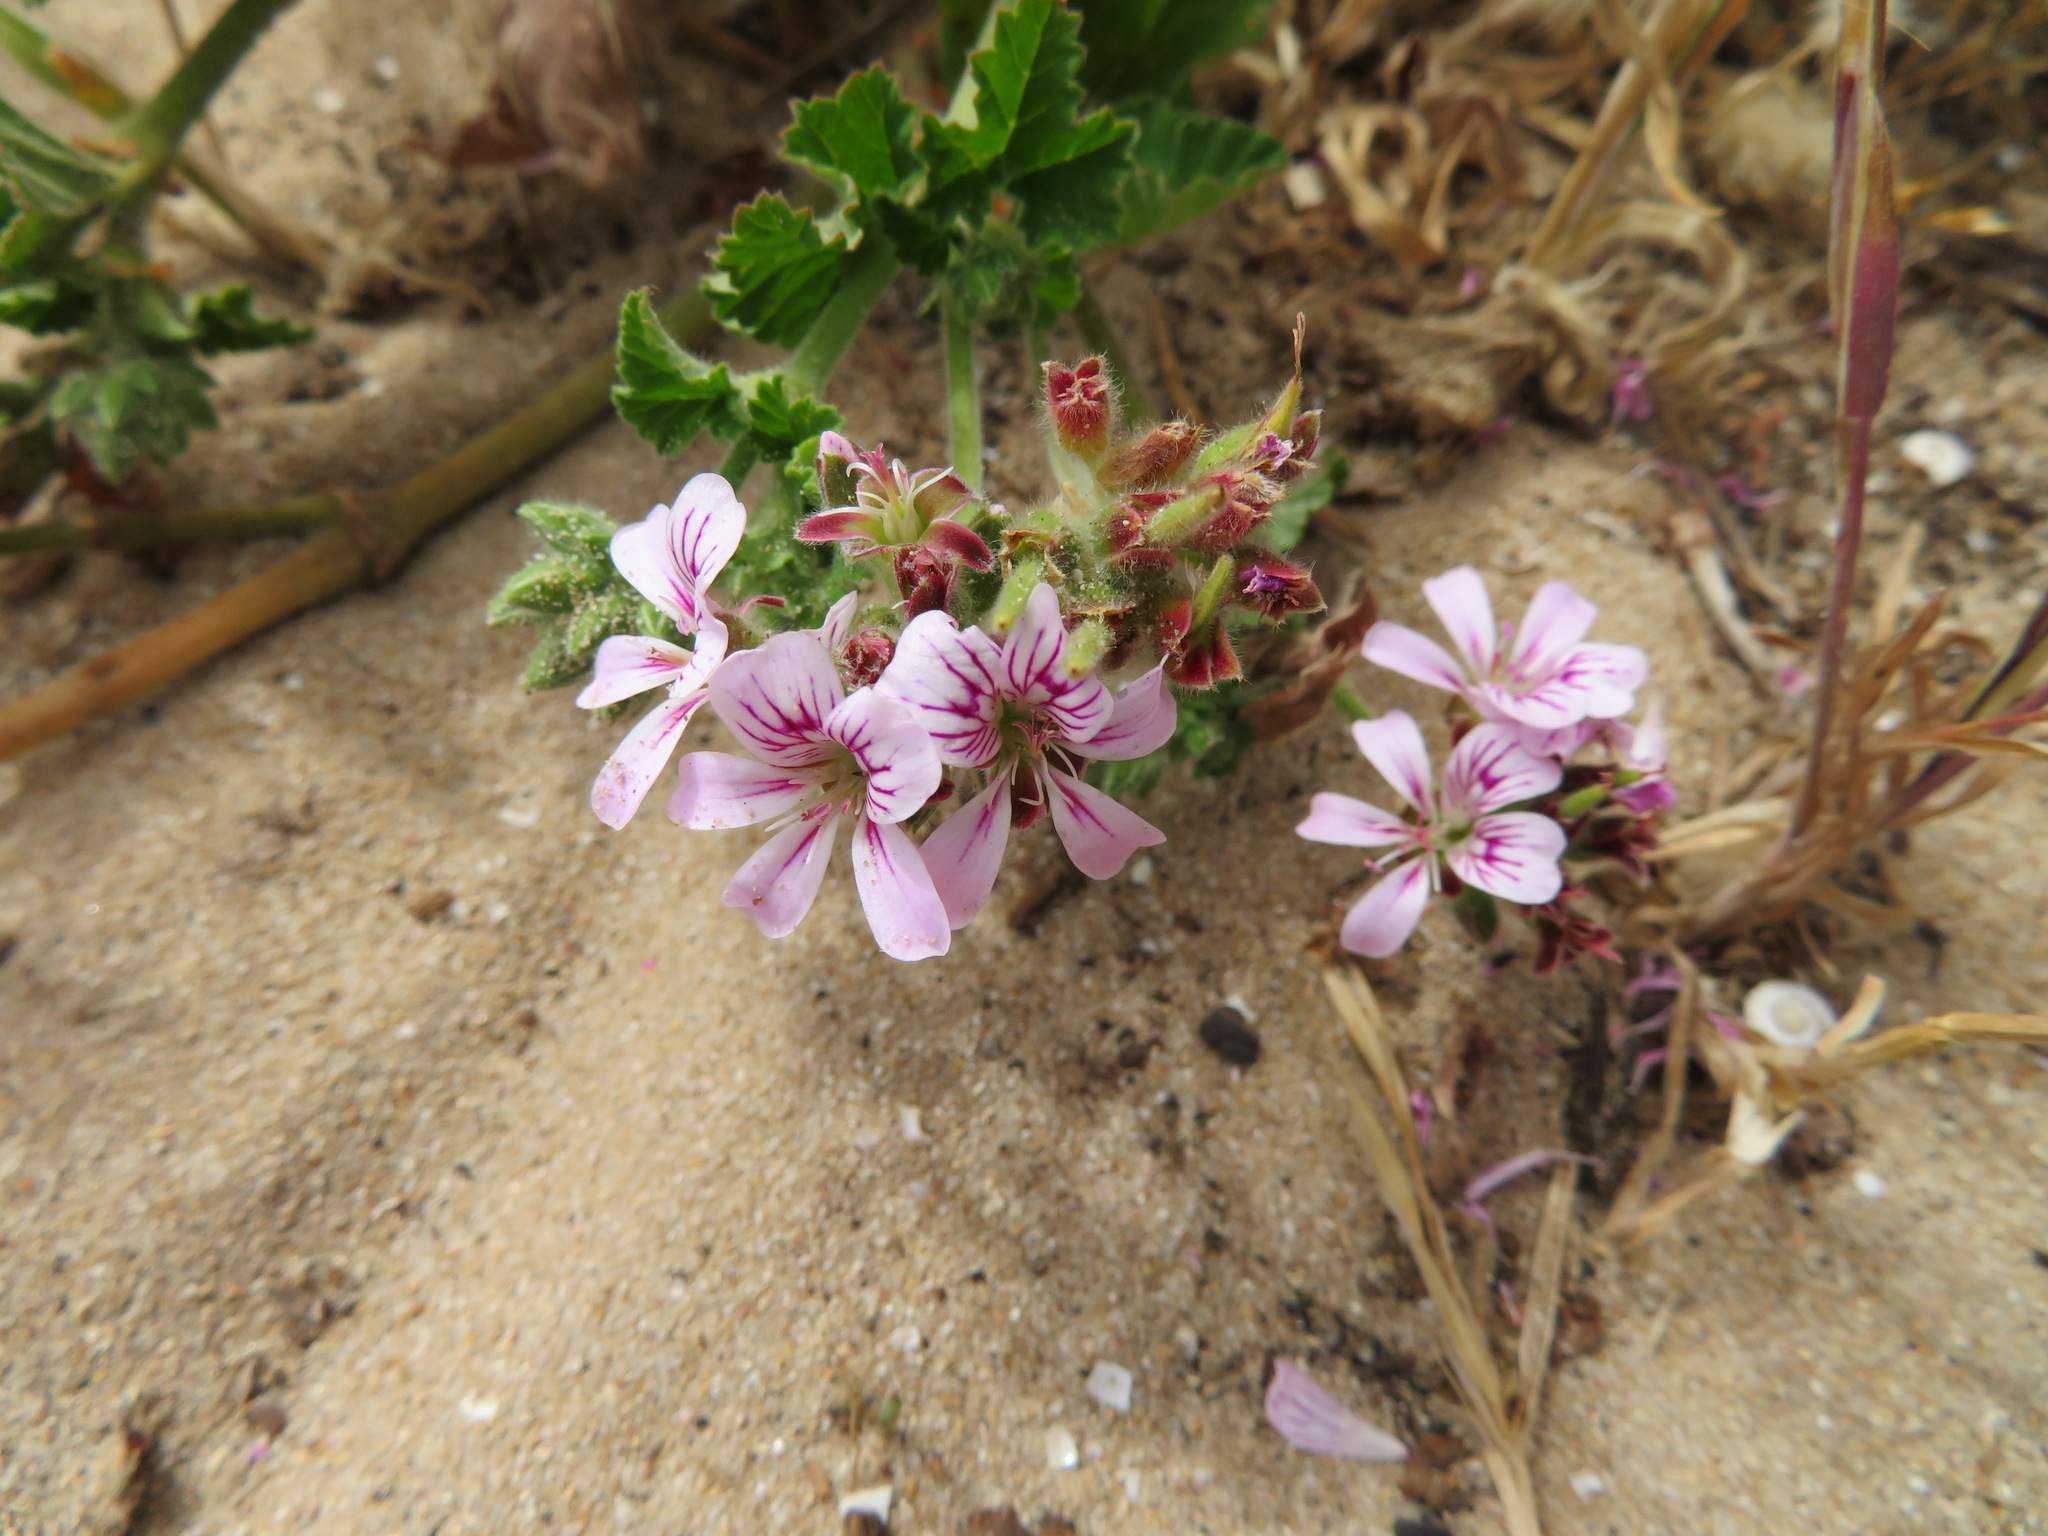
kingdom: Plantae
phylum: Tracheophyta
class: Magnoliopsida
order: Geraniales
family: Geraniaceae
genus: Pelargonium
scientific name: Pelargonium australe
